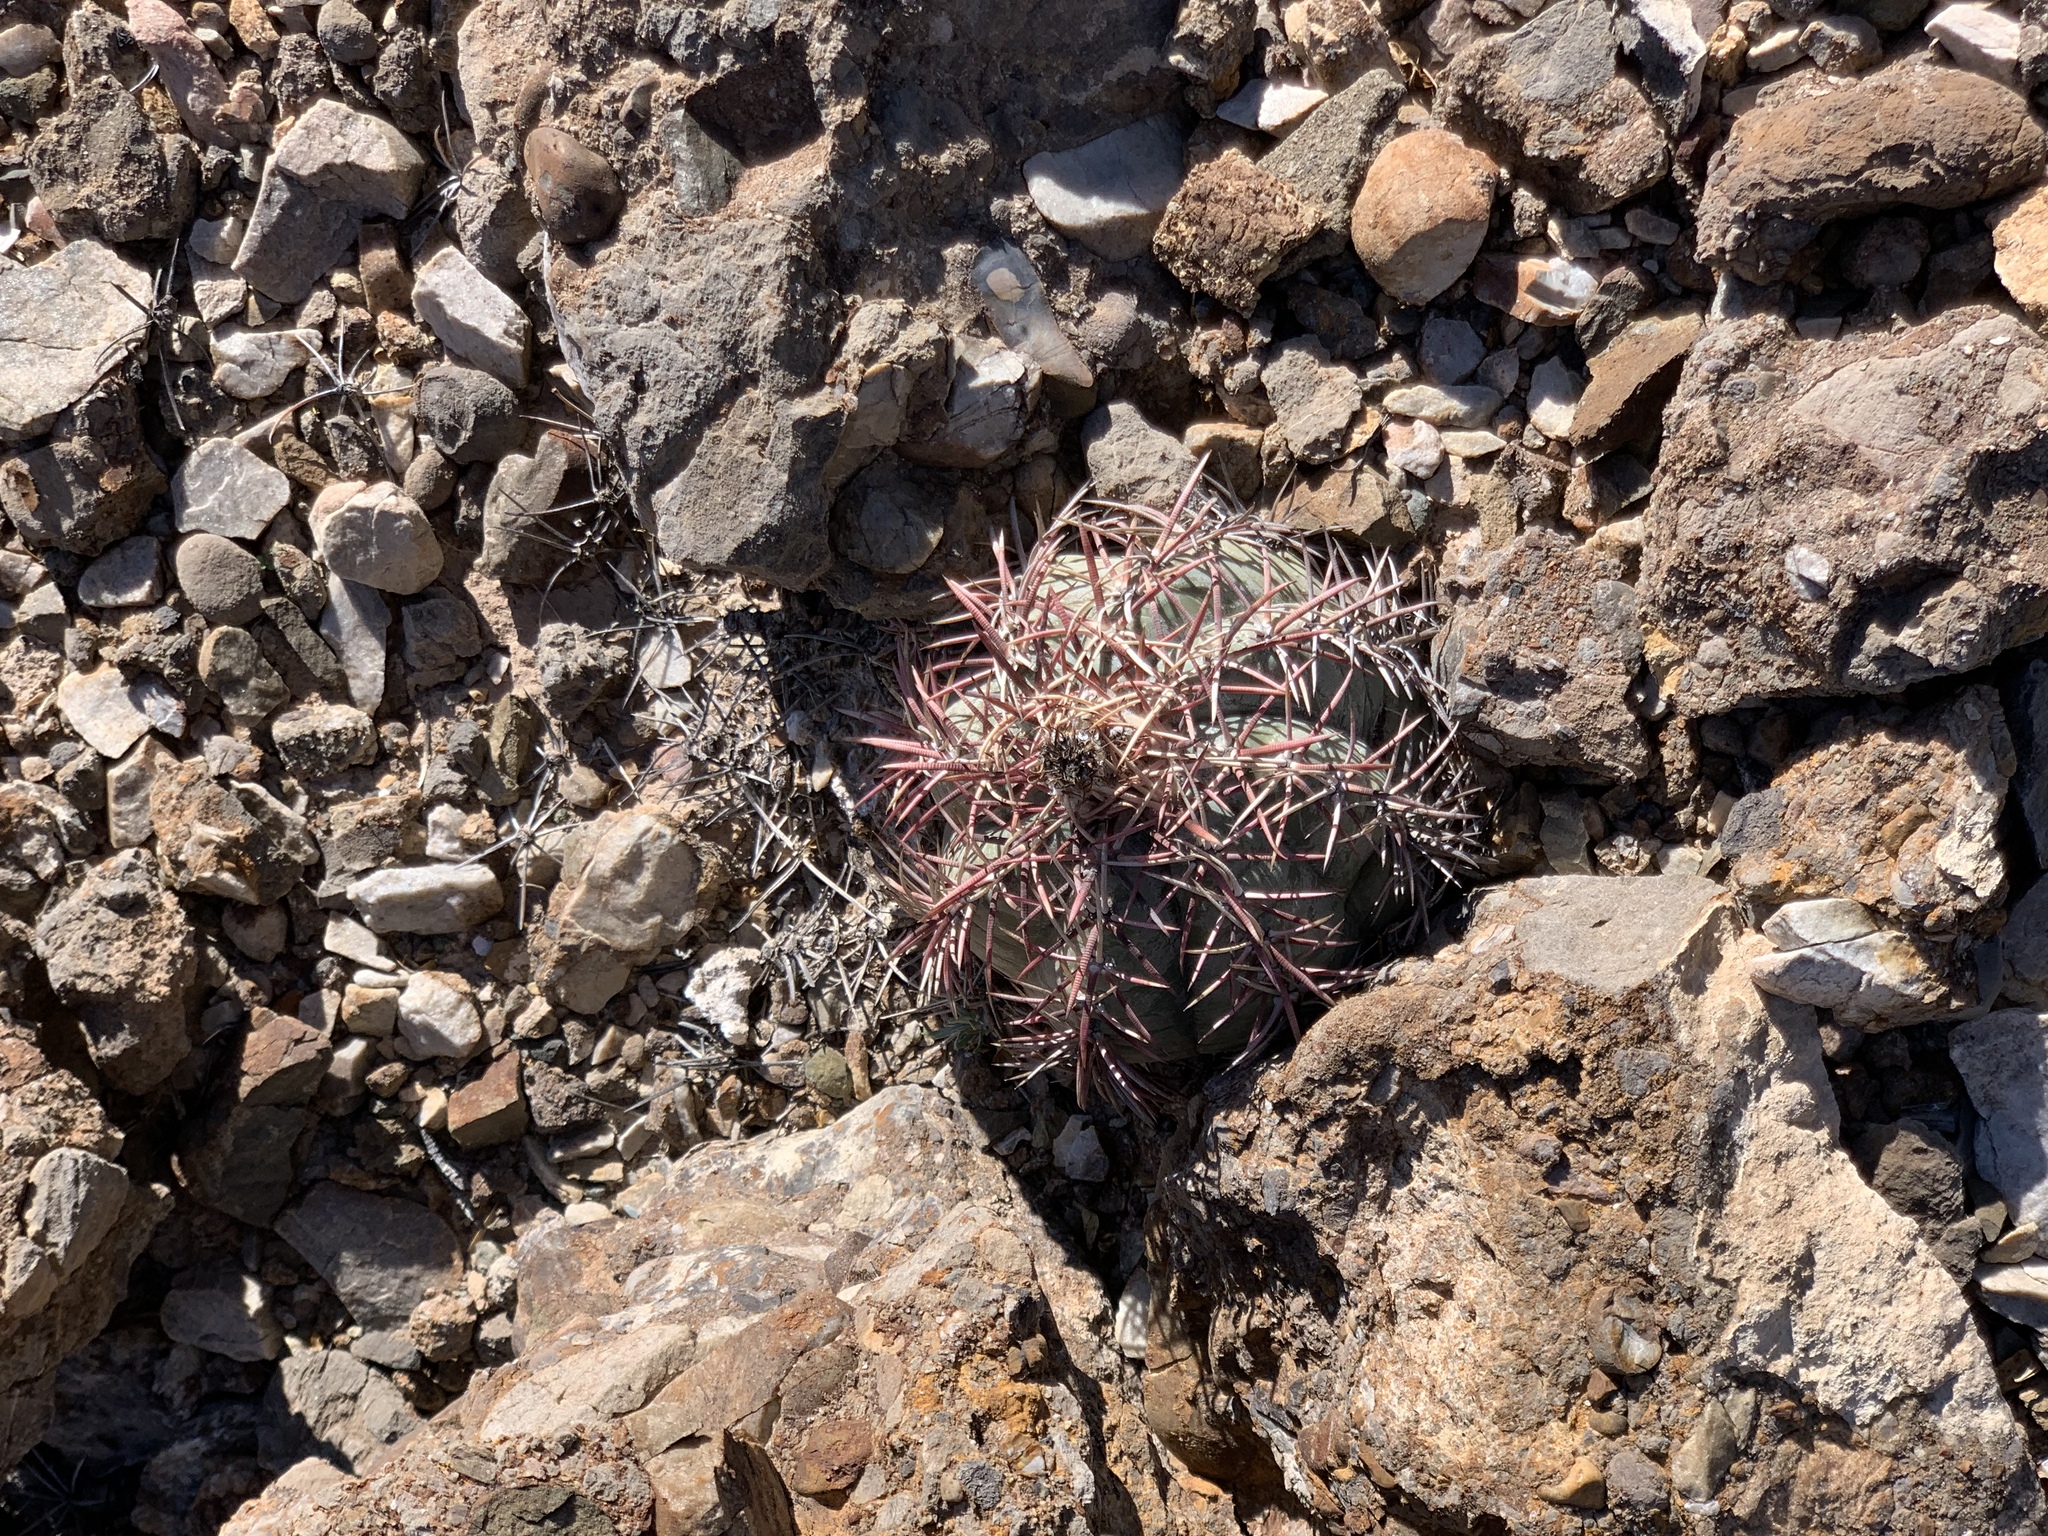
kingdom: Plantae
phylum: Tracheophyta
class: Magnoliopsida
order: Caryophyllales
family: Cactaceae
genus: Echinocactus
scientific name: Echinocactus horizonthalonius
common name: Devilshead
